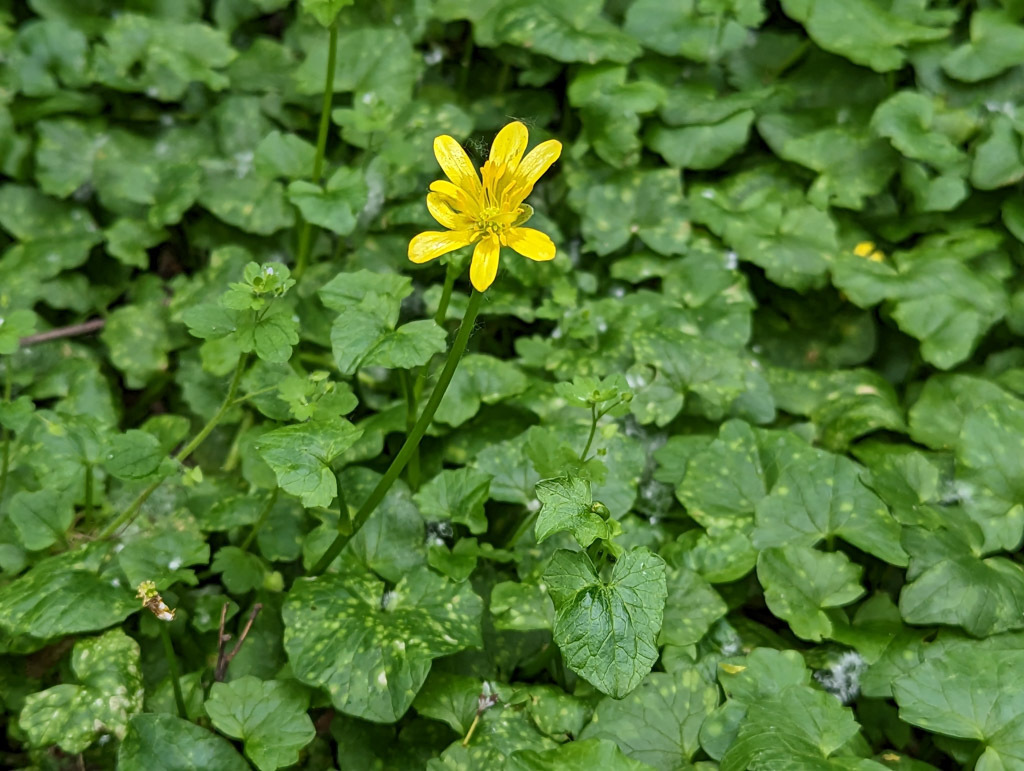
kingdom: Plantae
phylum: Tracheophyta
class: Magnoliopsida
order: Ranunculales
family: Ranunculaceae
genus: Ficaria
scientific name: Ficaria verna
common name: Lesser celandine
